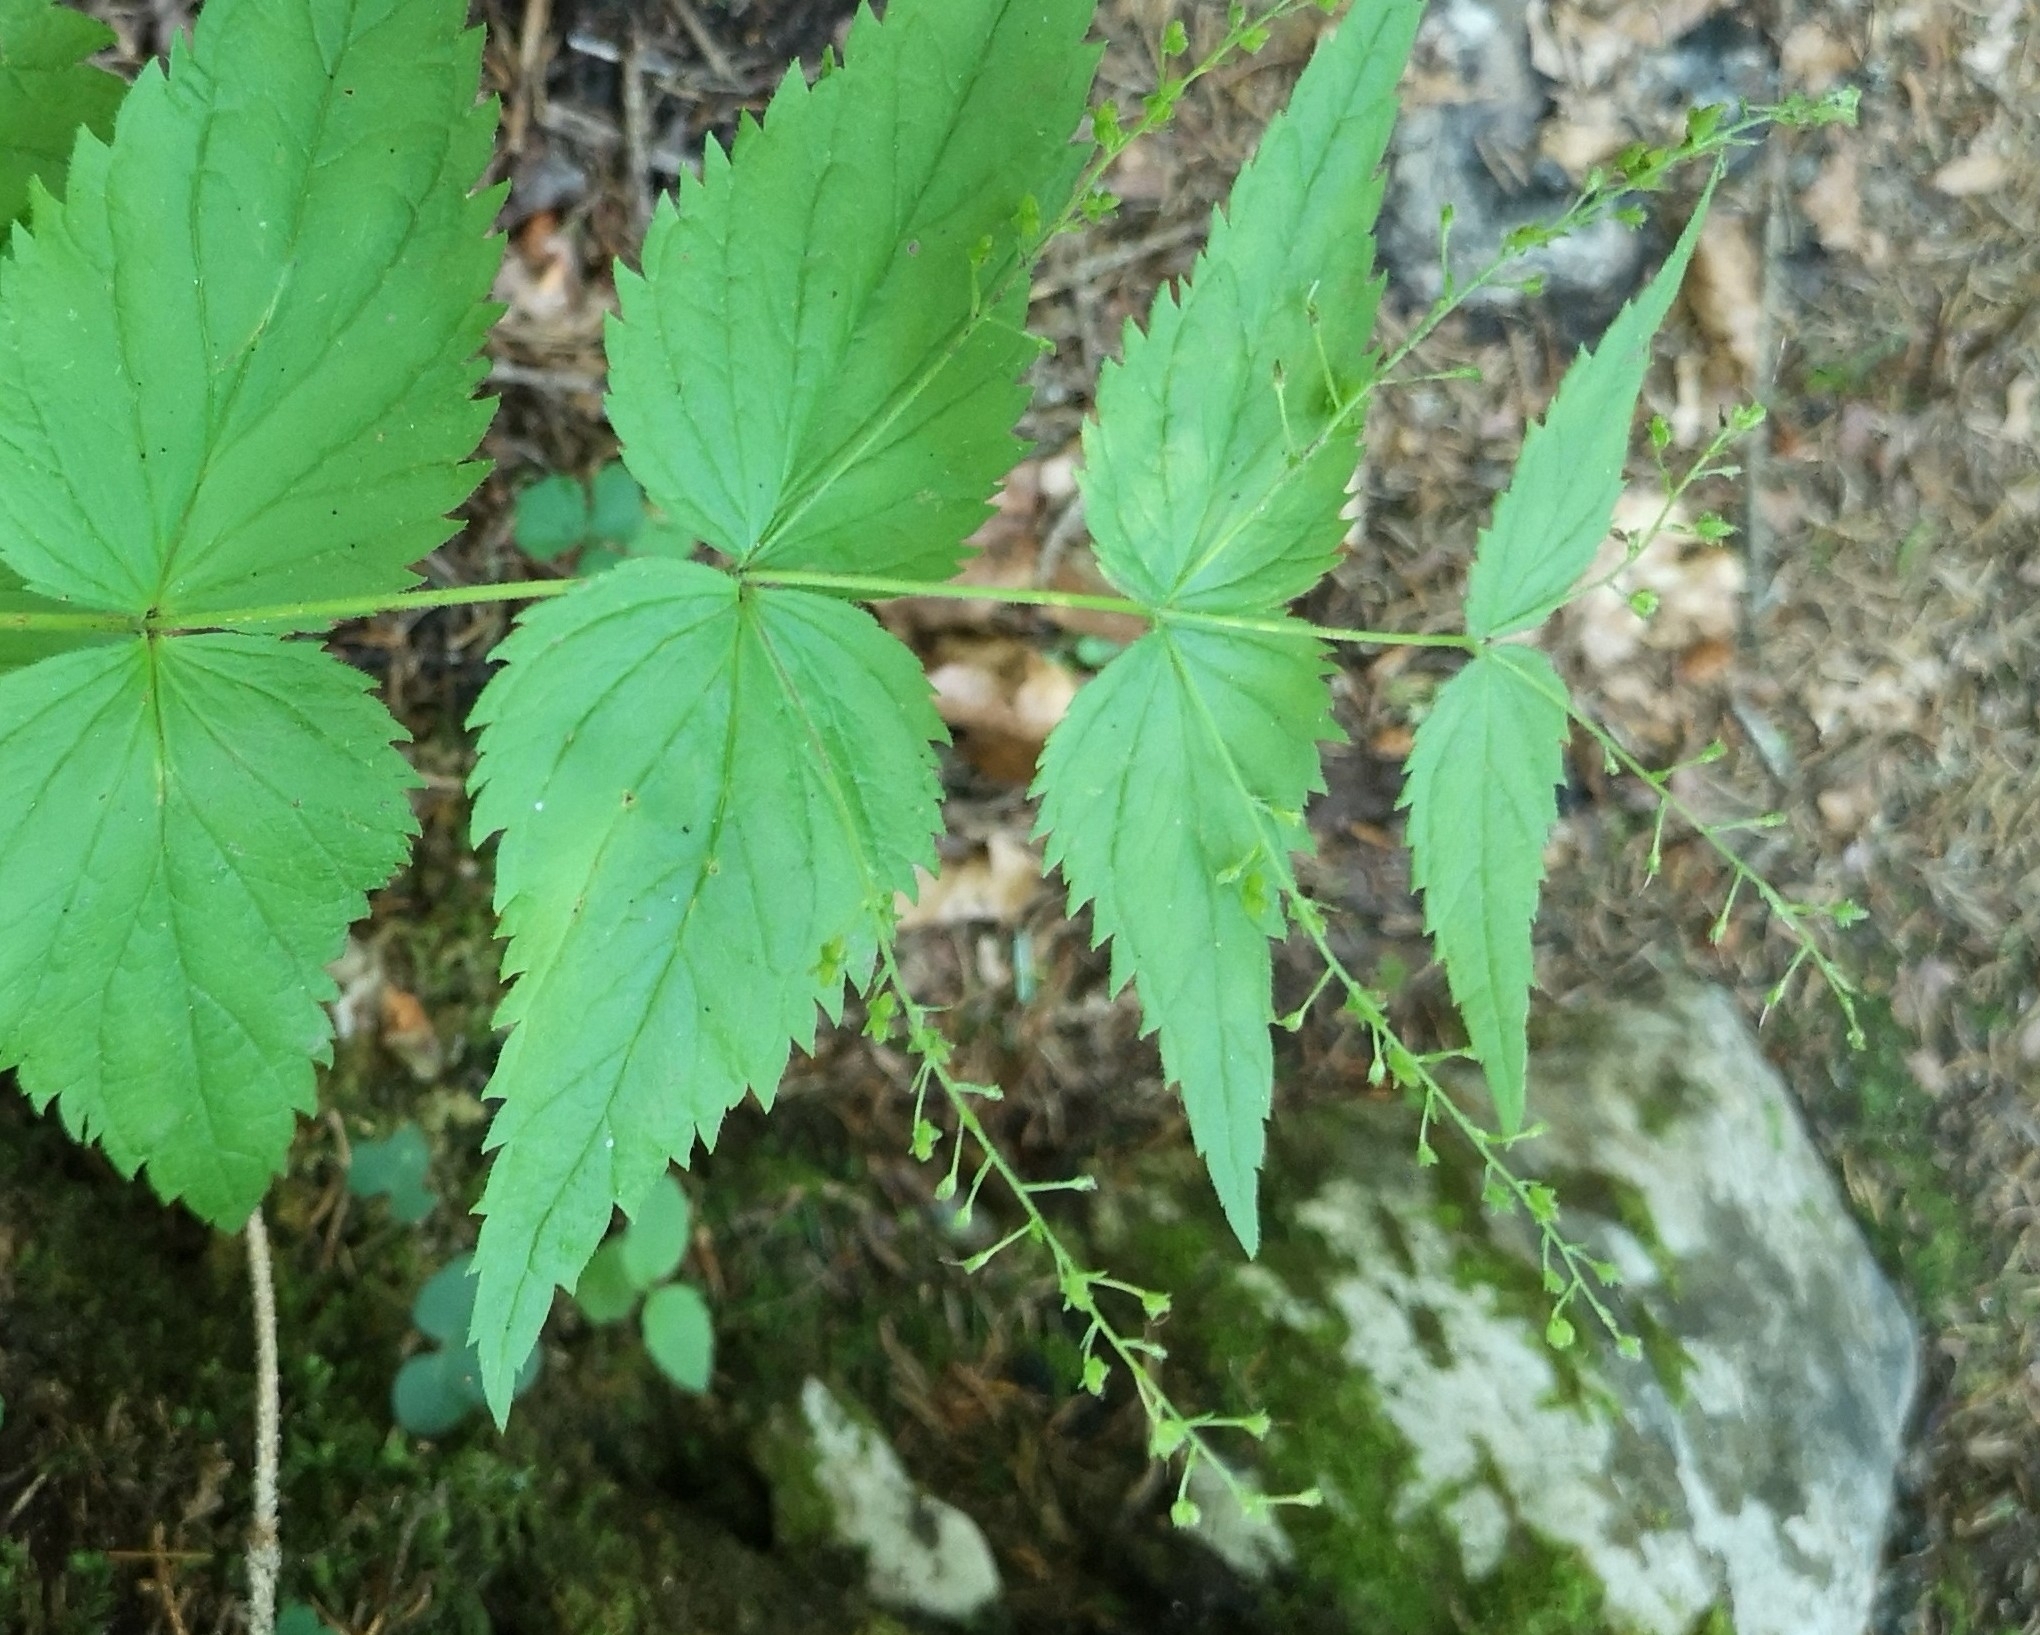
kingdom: Plantae
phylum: Tracheophyta
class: Magnoliopsida
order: Lamiales
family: Plantaginaceae
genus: Veronica
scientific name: Veronica urticifolia
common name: Nettle-leaf speedwell
